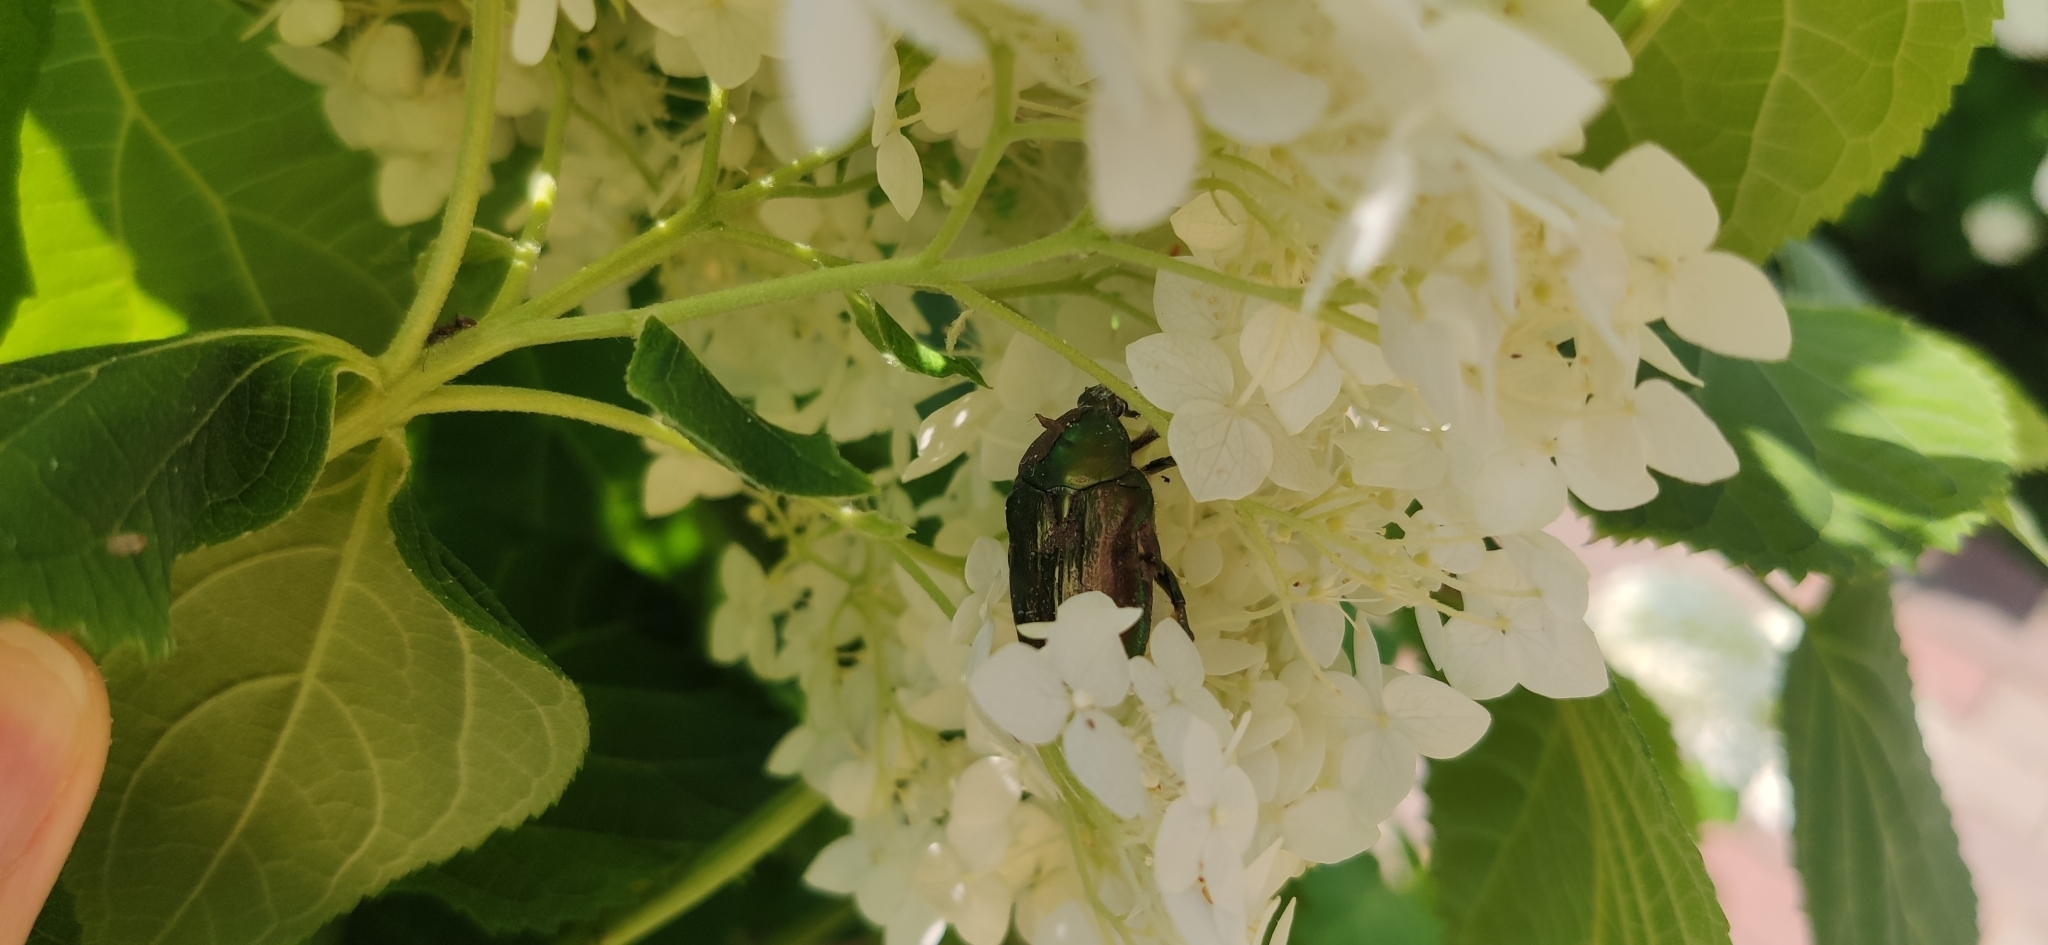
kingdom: Animalia
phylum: Arthropoda
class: Insecta
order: Coleoptera
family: Scarabaeidae
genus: Cetonia
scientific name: Cetonia aurata
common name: Rose chafer
